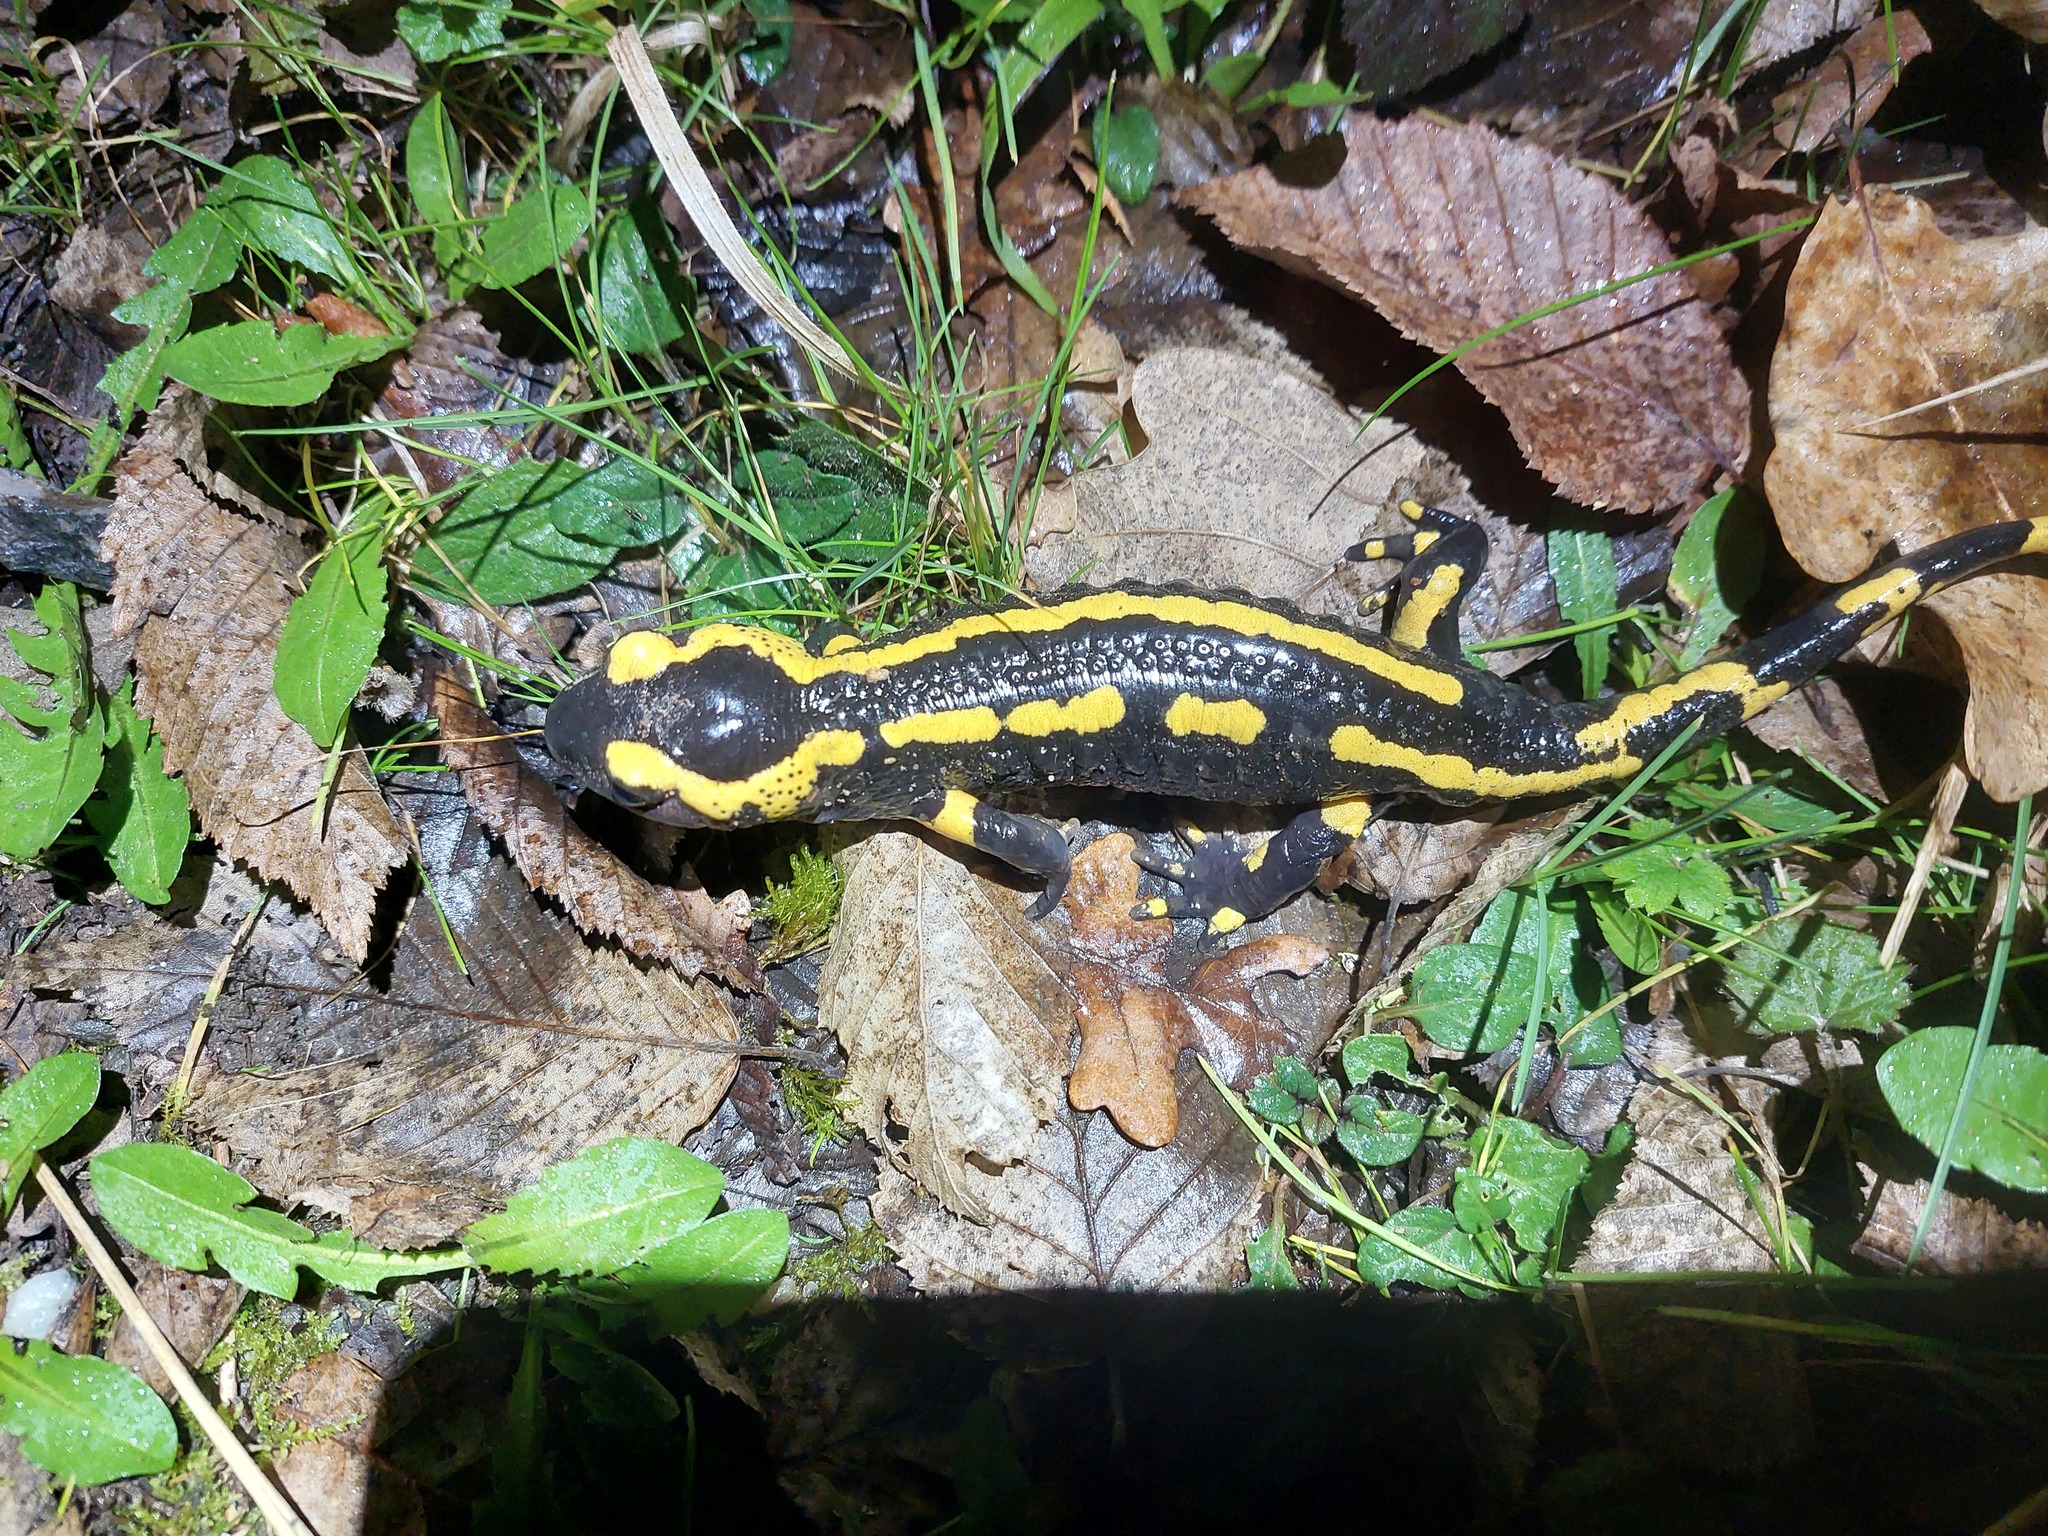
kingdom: Animalia
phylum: Chordata
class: Amphibia
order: Caudata
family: Salamandridae
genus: Salamandra
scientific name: Salamandra salamandra
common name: Fire salamander
